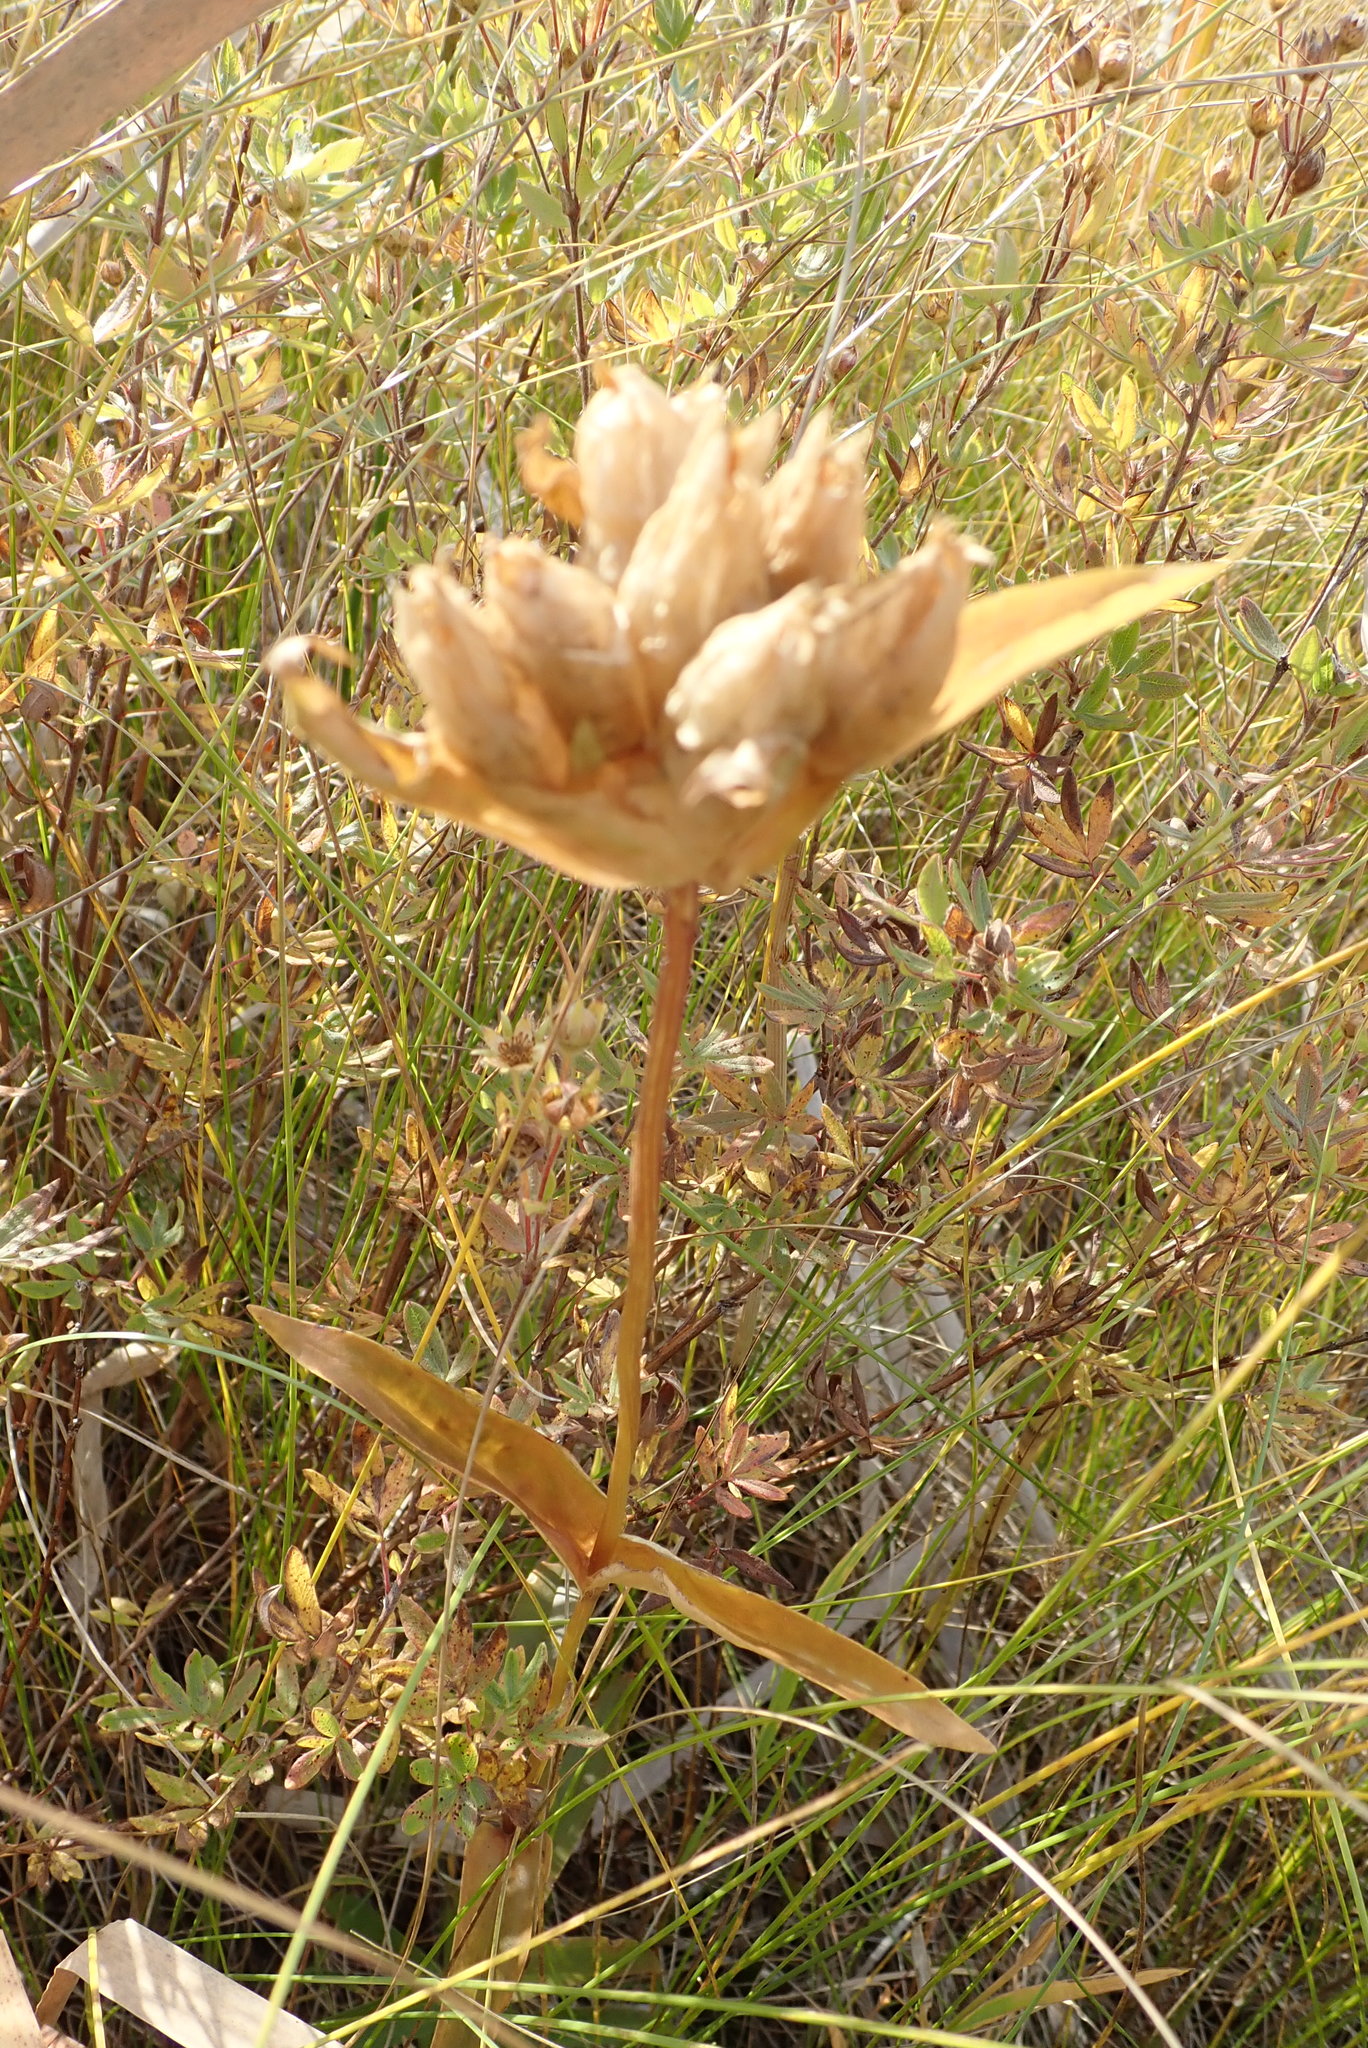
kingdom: Plantae
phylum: Tracheophyta
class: Magnoliopsida
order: Gentianales
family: Gentianaceae
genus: Gentiana
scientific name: Gentiana rubricaulis
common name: Purple-stemmed gentian
